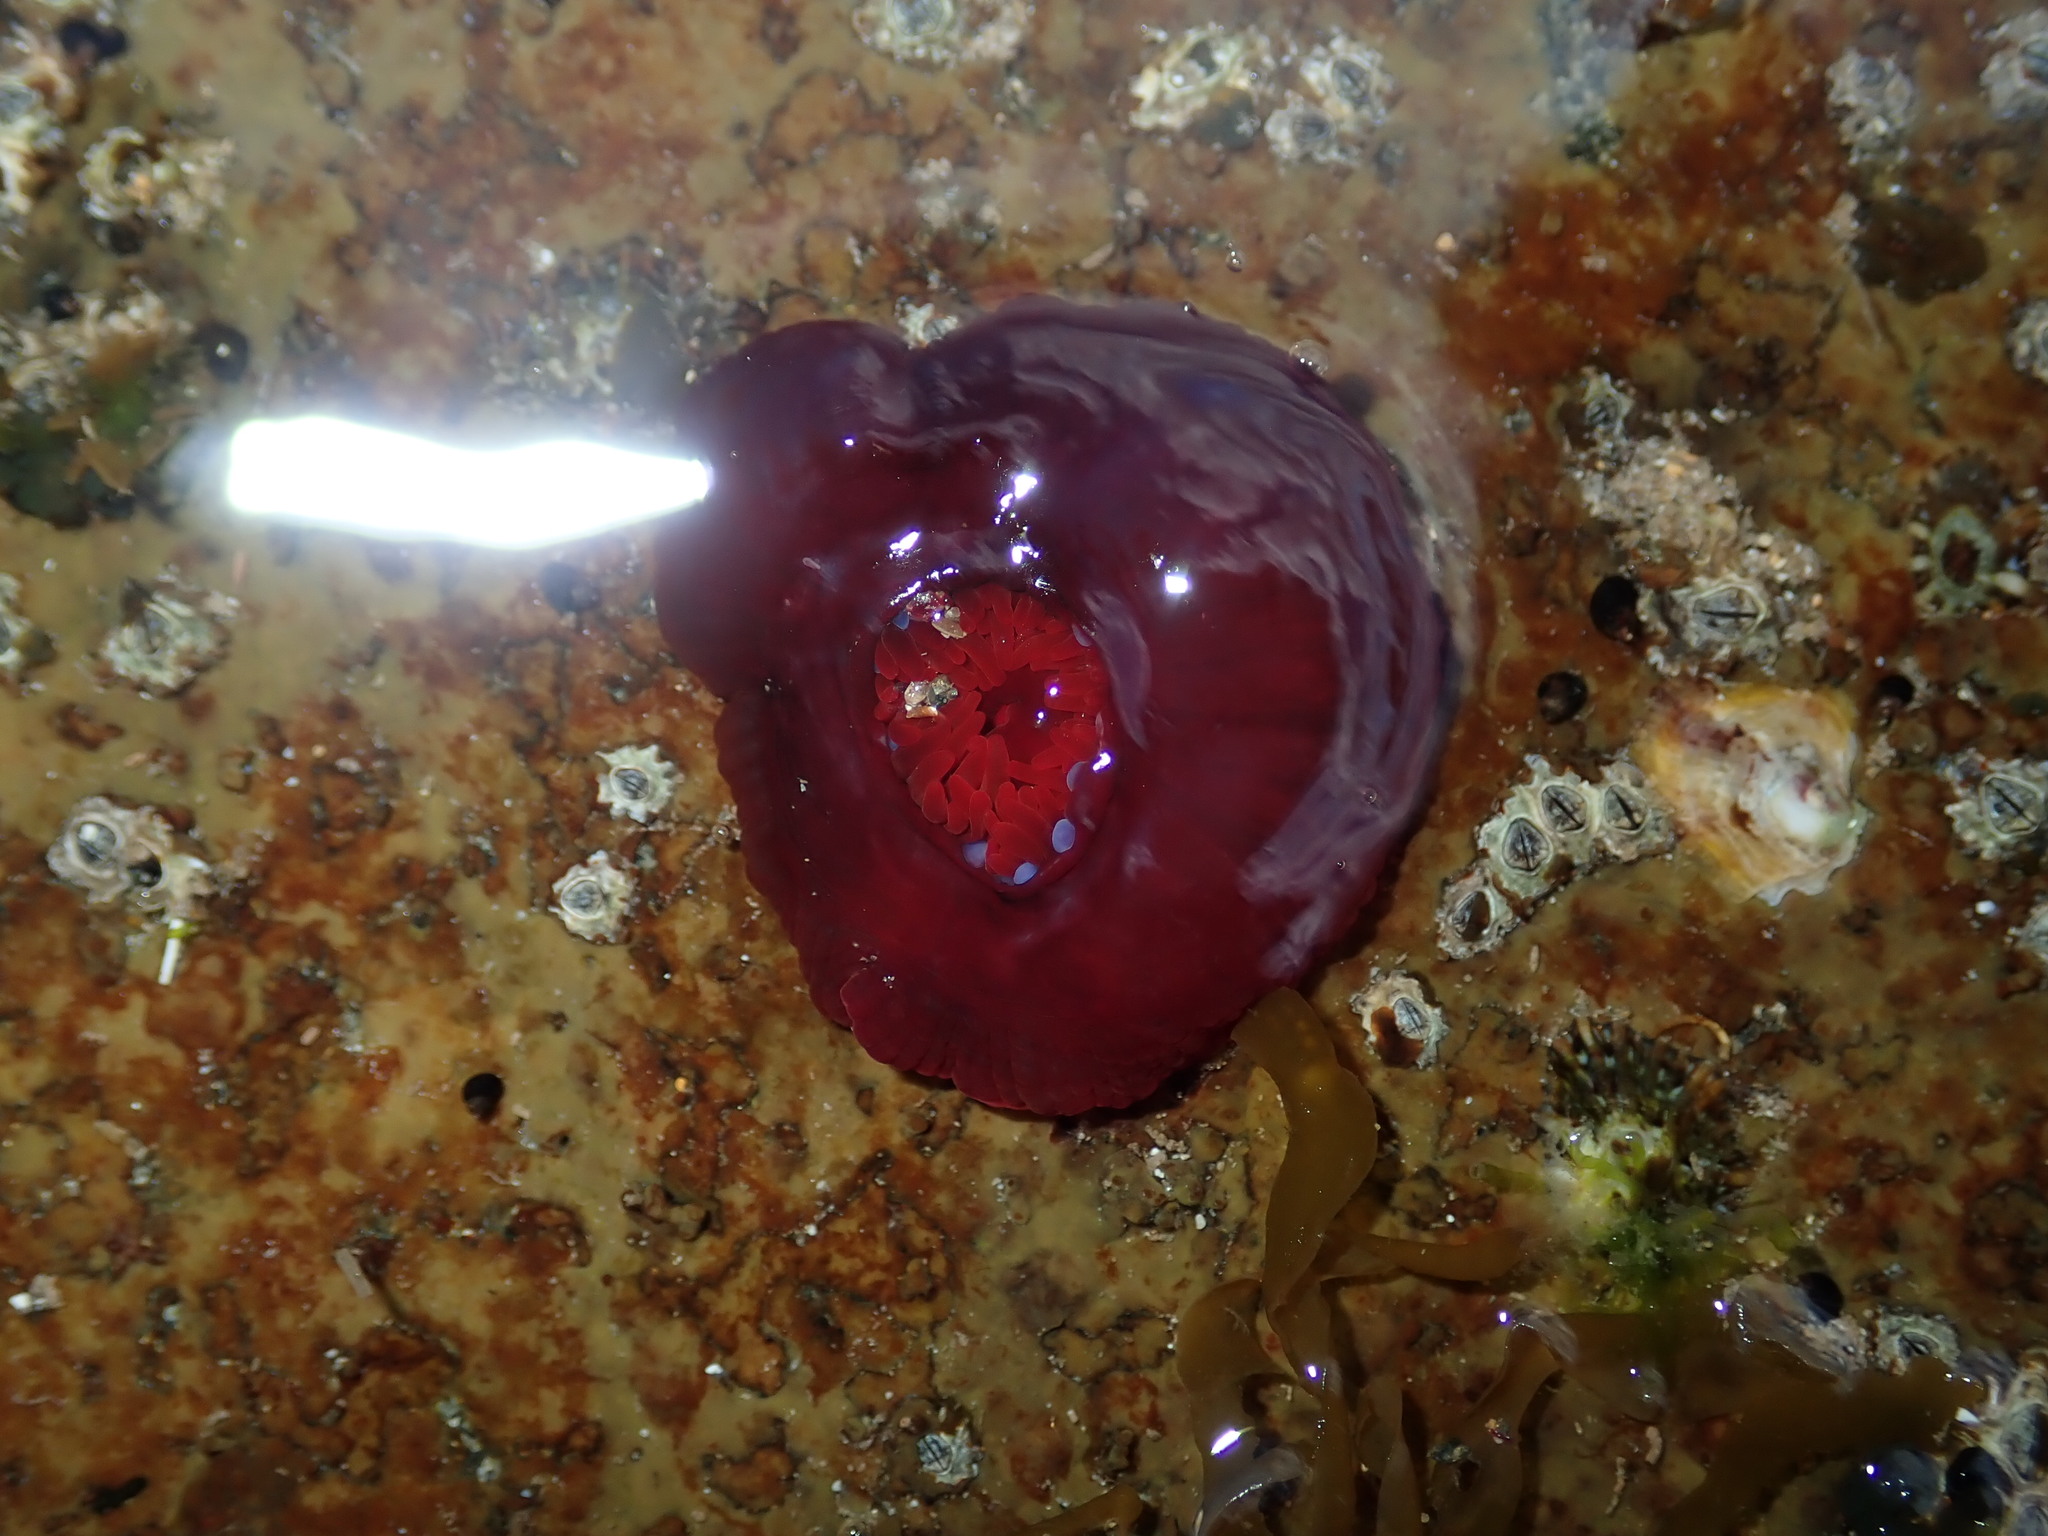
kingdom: Animalia
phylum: Cnidaria
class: Anthozoa
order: Actiniaria
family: Actiniidae
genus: Actinia
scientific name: Actinia tenebrosa
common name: Waratah anemone
